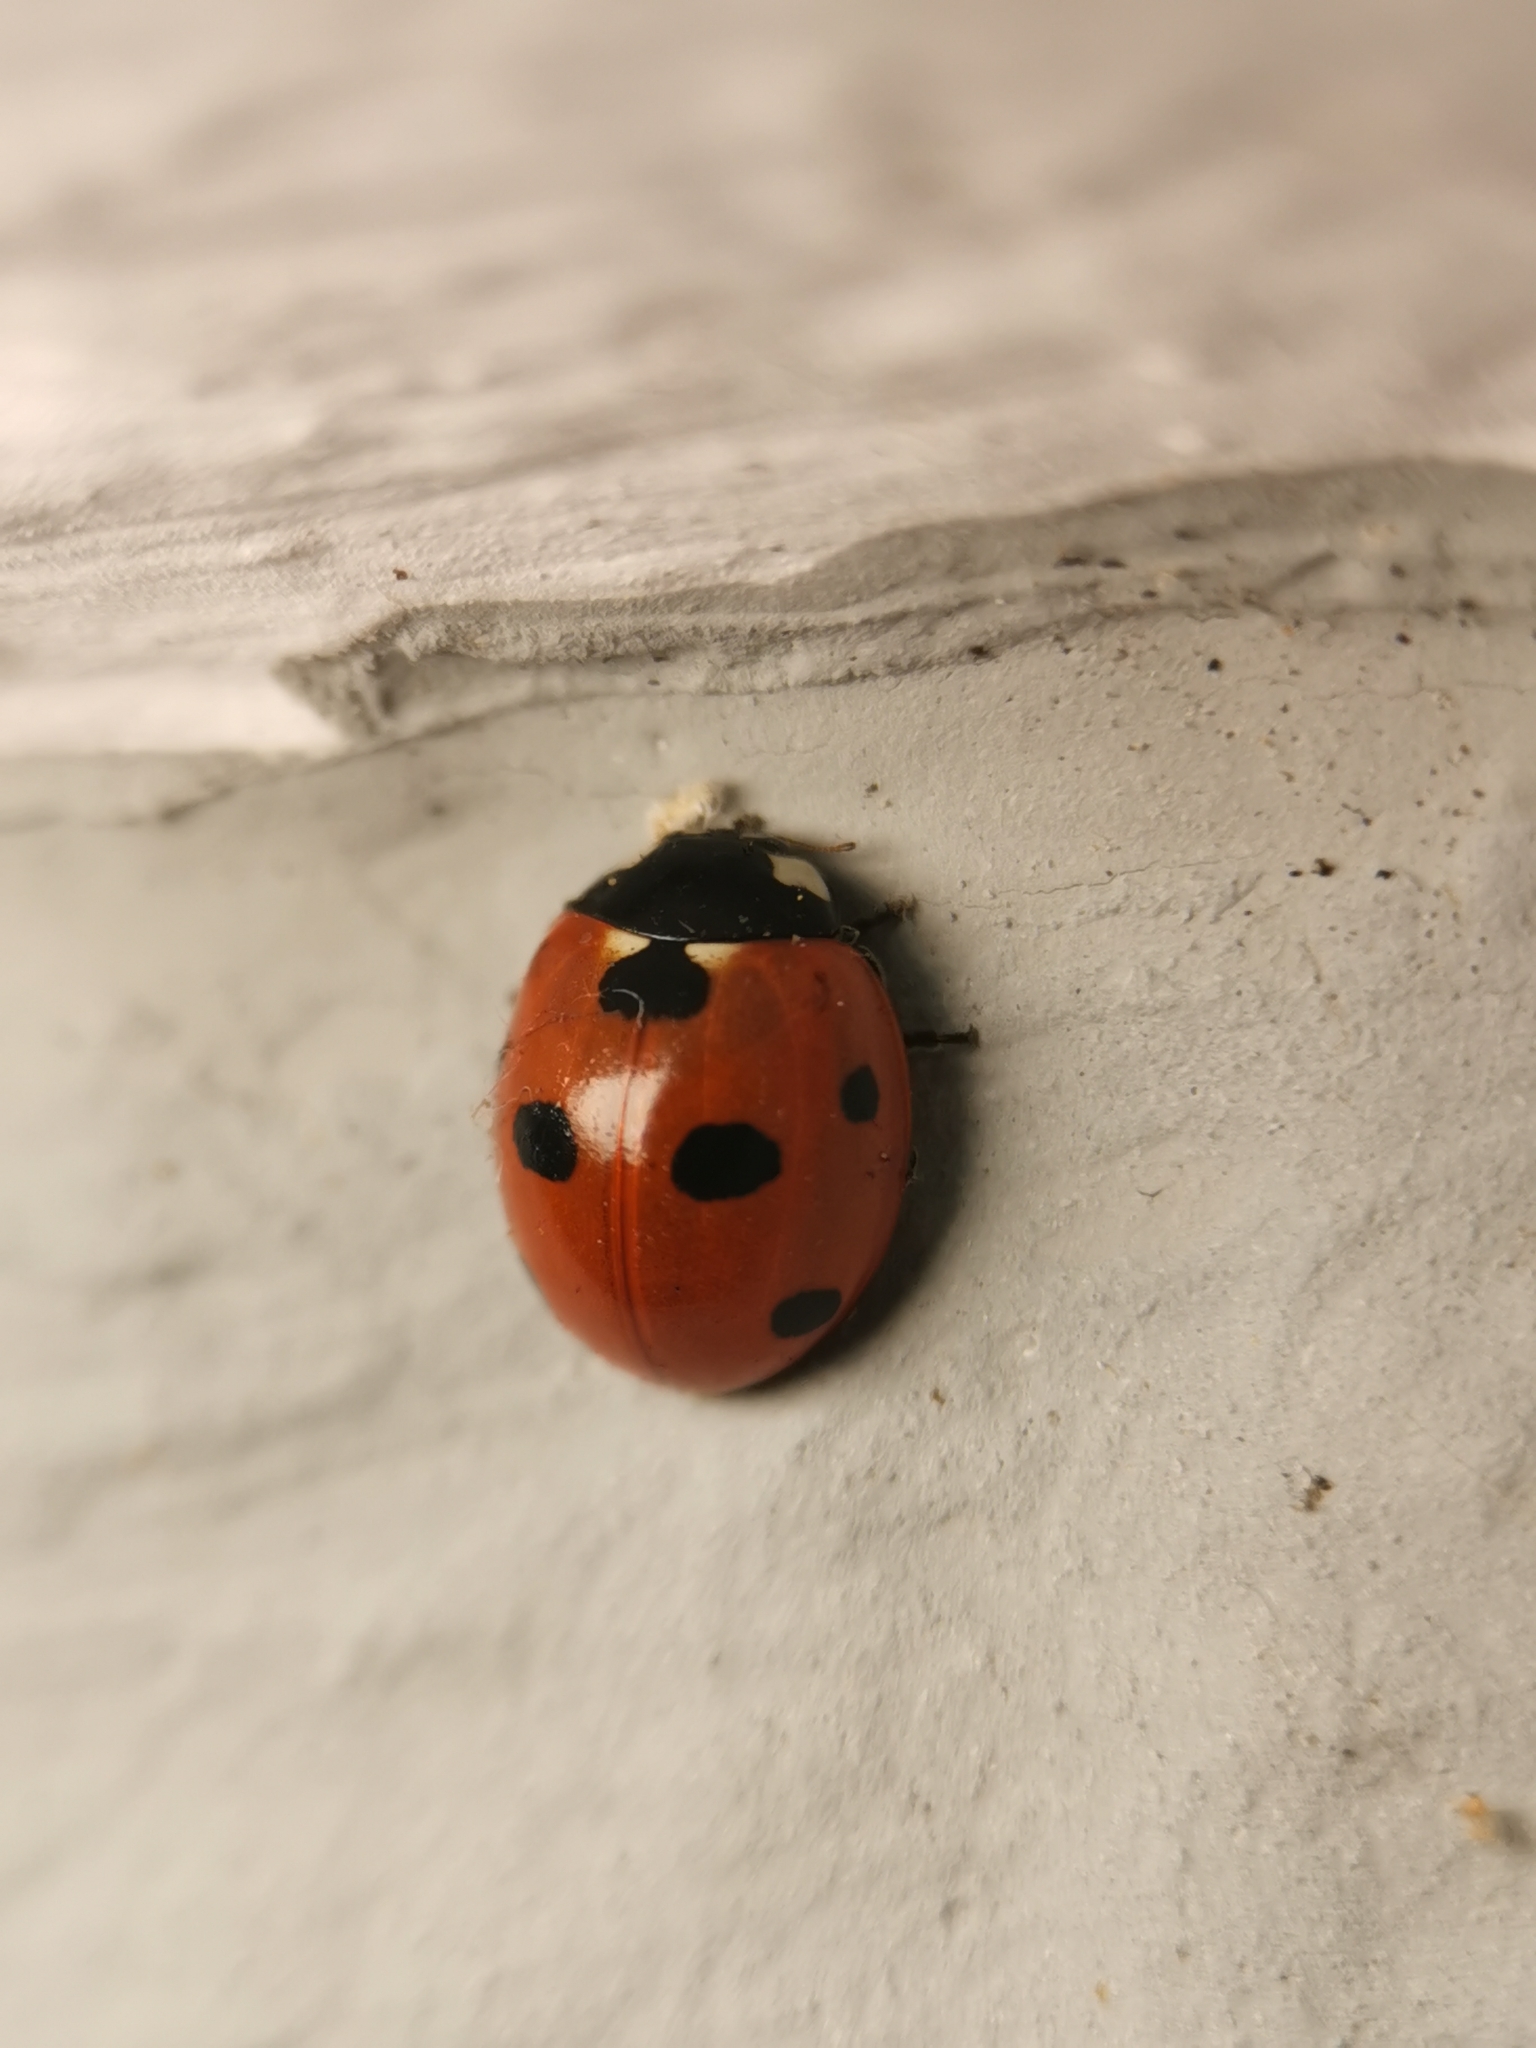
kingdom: Animalia
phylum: Arthropoda
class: Insecta
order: Coleoptera
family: Coccinellidae
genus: Coccinella
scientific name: Coccinella septempunctata
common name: Sevenspotted lady beetle
